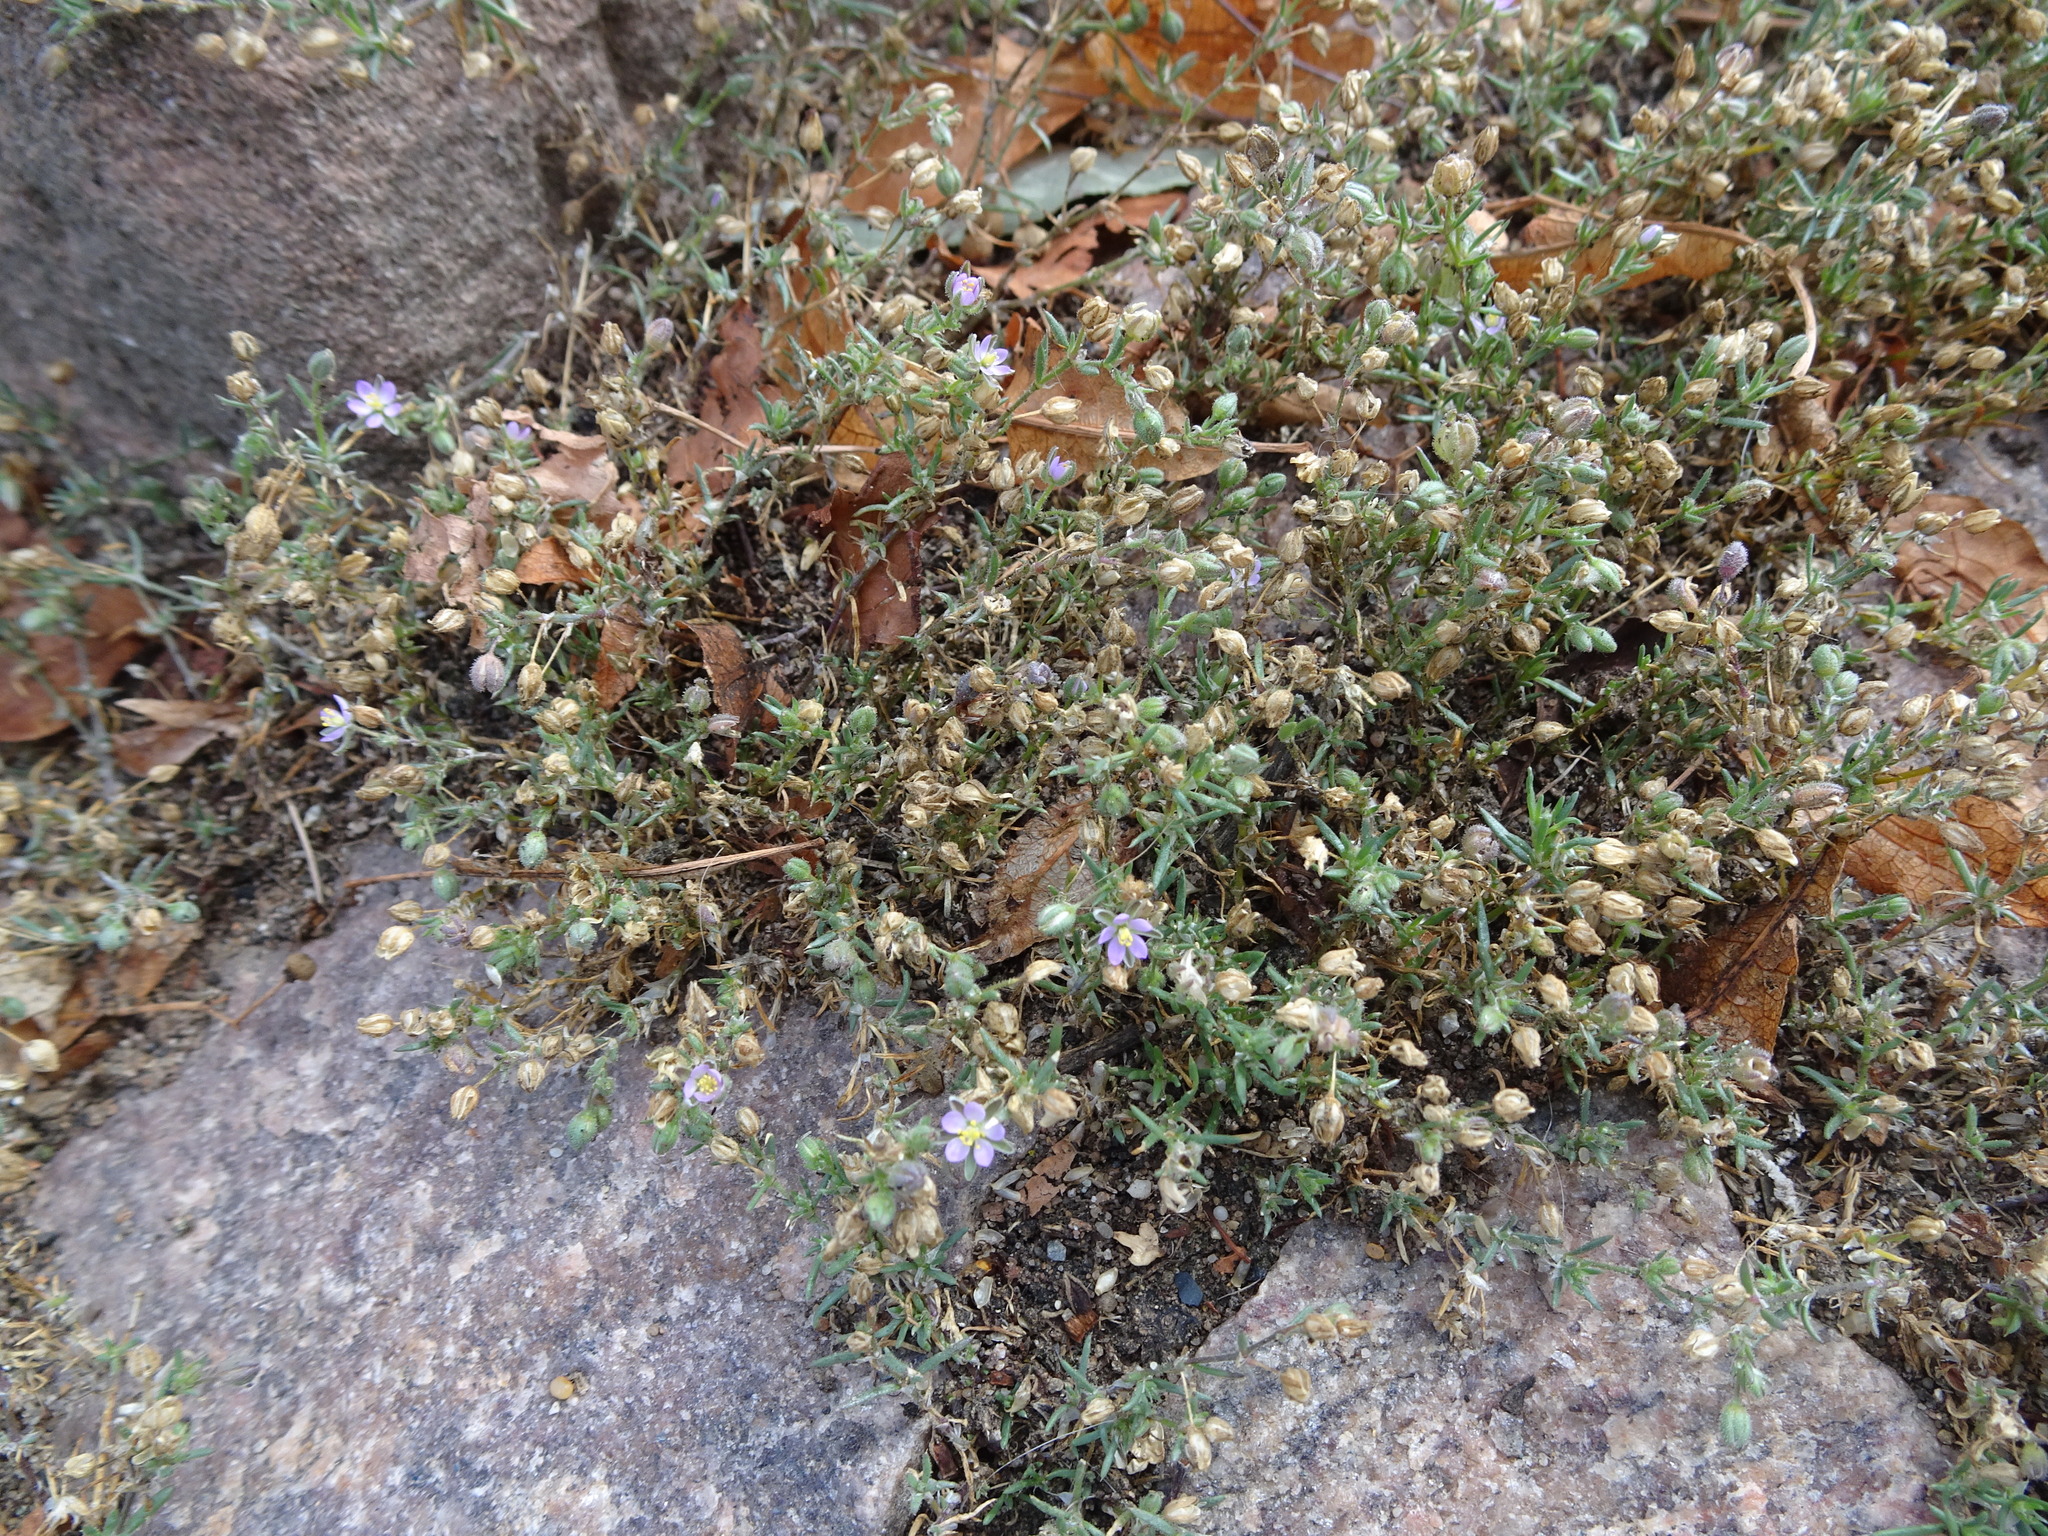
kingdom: Plantae
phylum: Tracheophyta
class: Magnoliopsida
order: Caryophyllales
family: Caryophyllaceae
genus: Spergularia
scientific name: Spergularia rubra
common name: Red sand-spurrey
